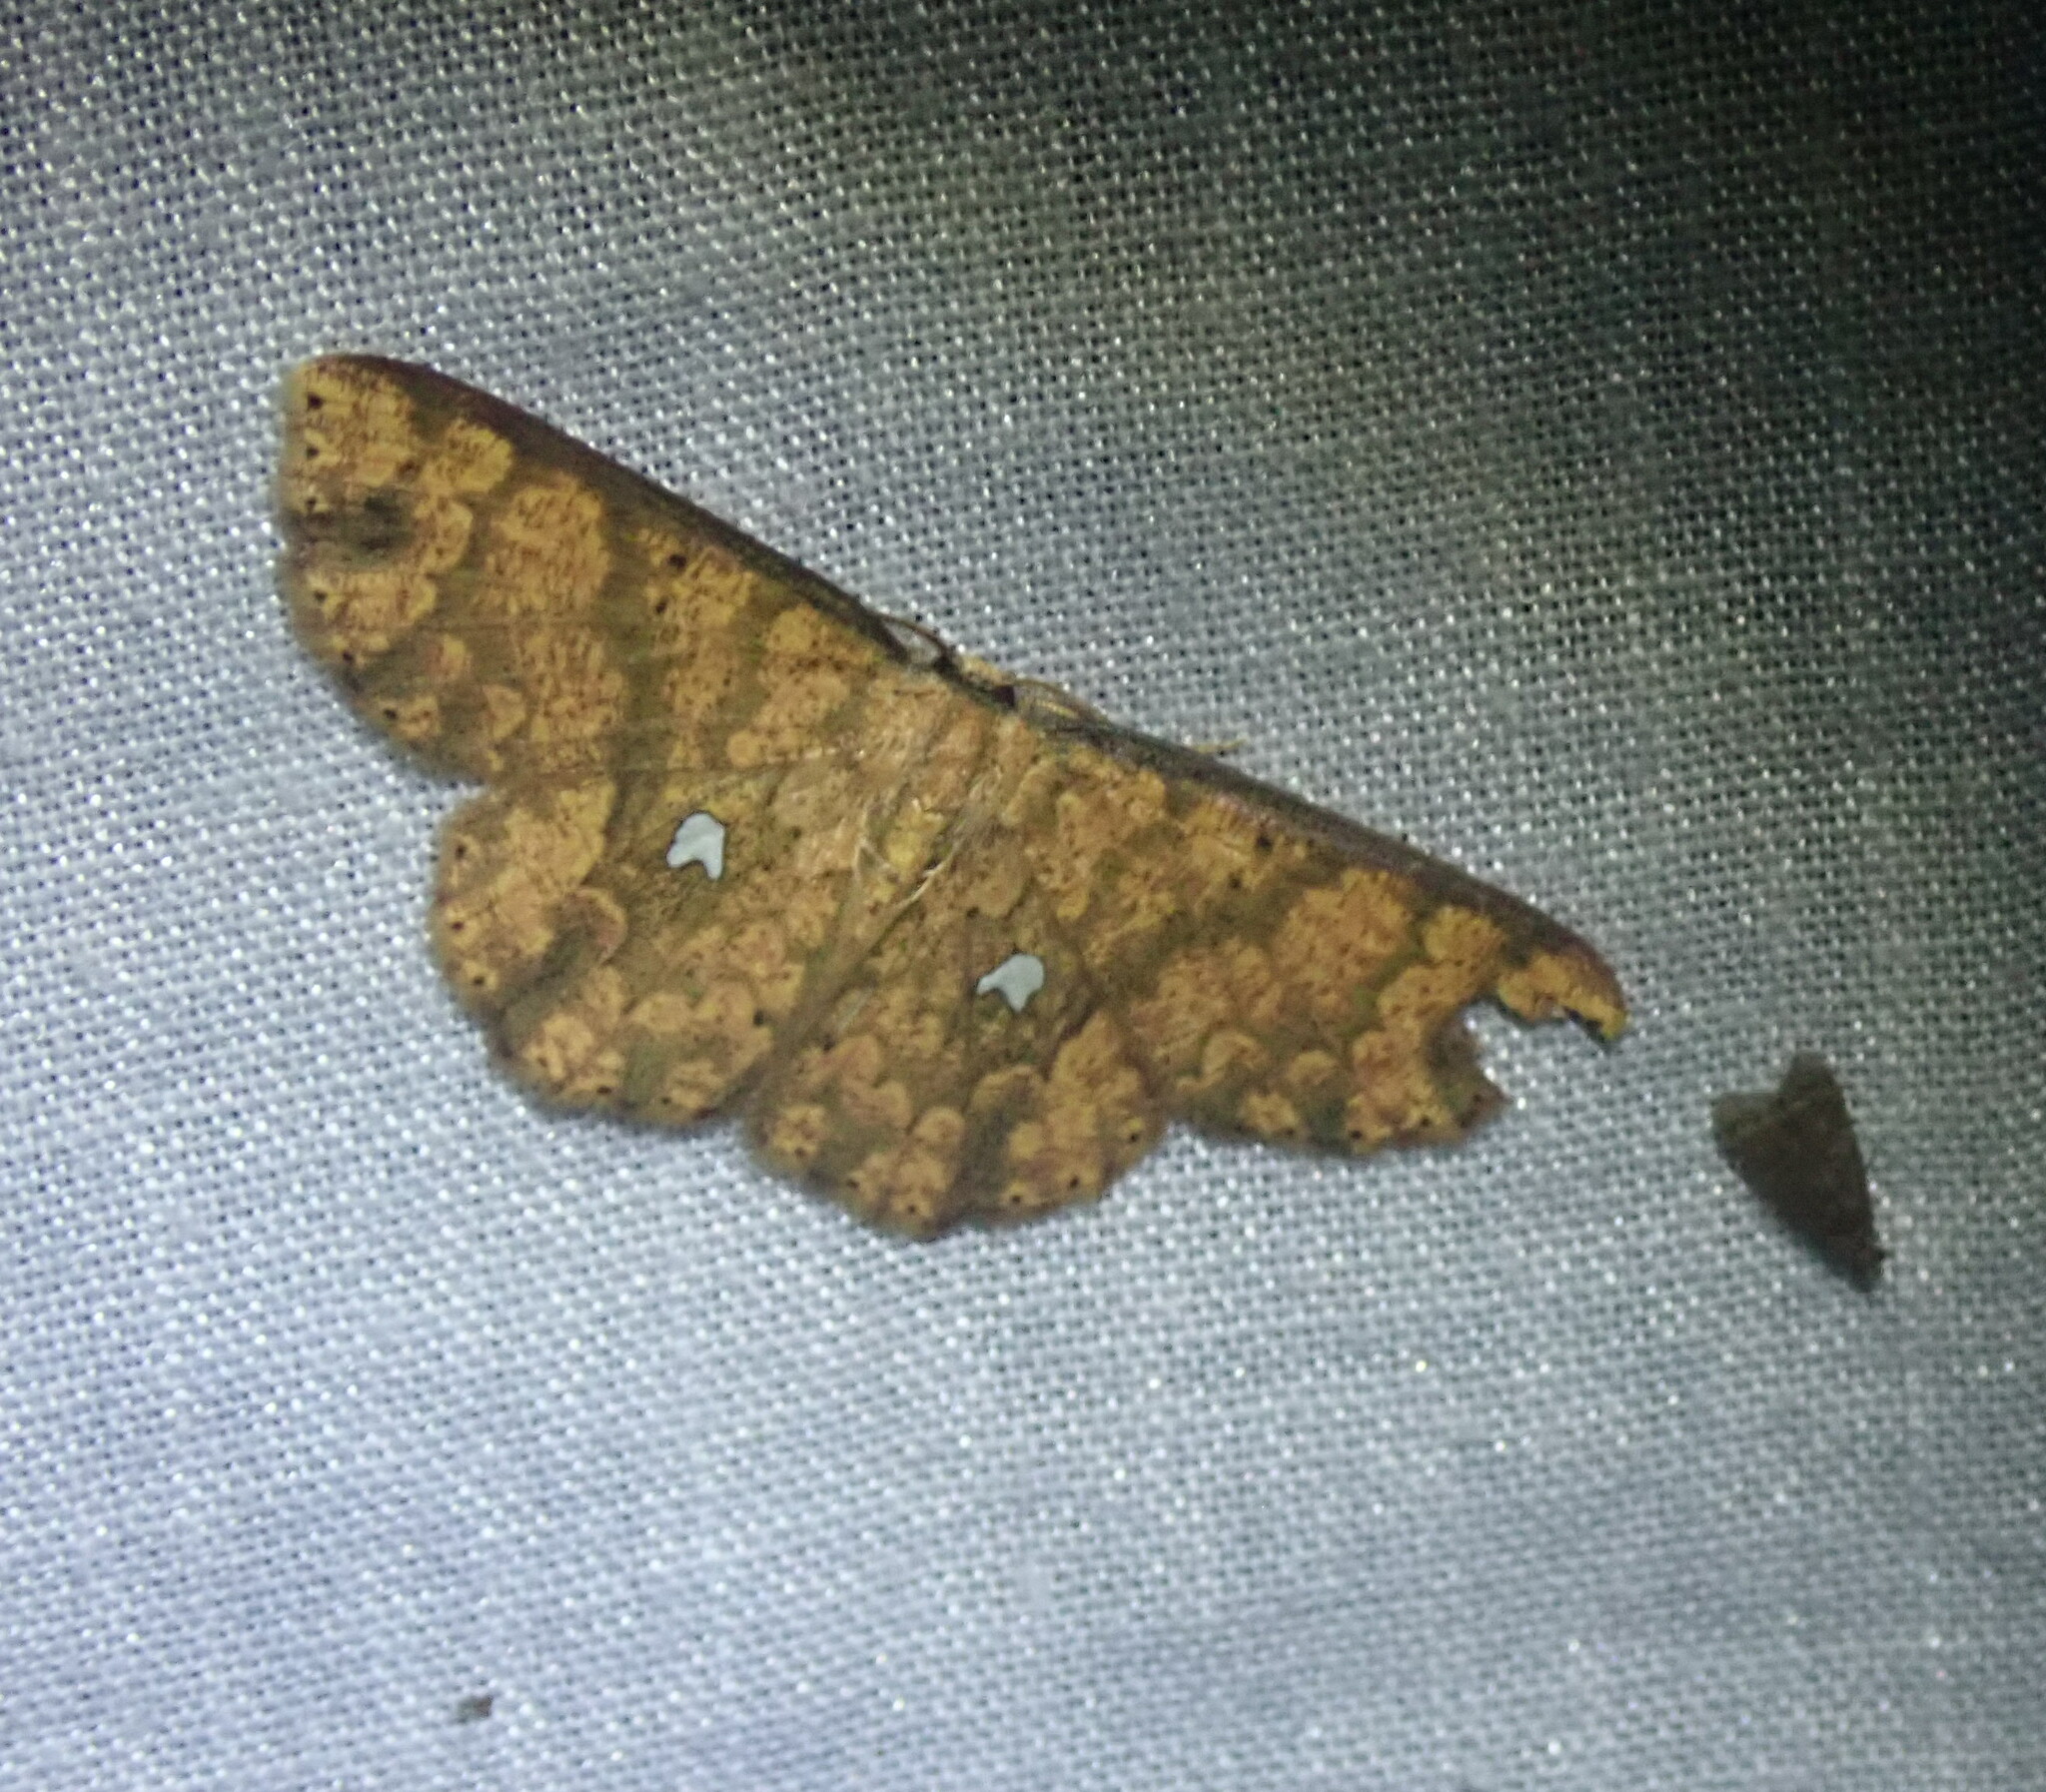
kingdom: Animalia
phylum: Arthropoda
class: Insecta
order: Lepidoptera
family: Geometridae
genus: Cyclophora
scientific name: Cyclophora nodigera
